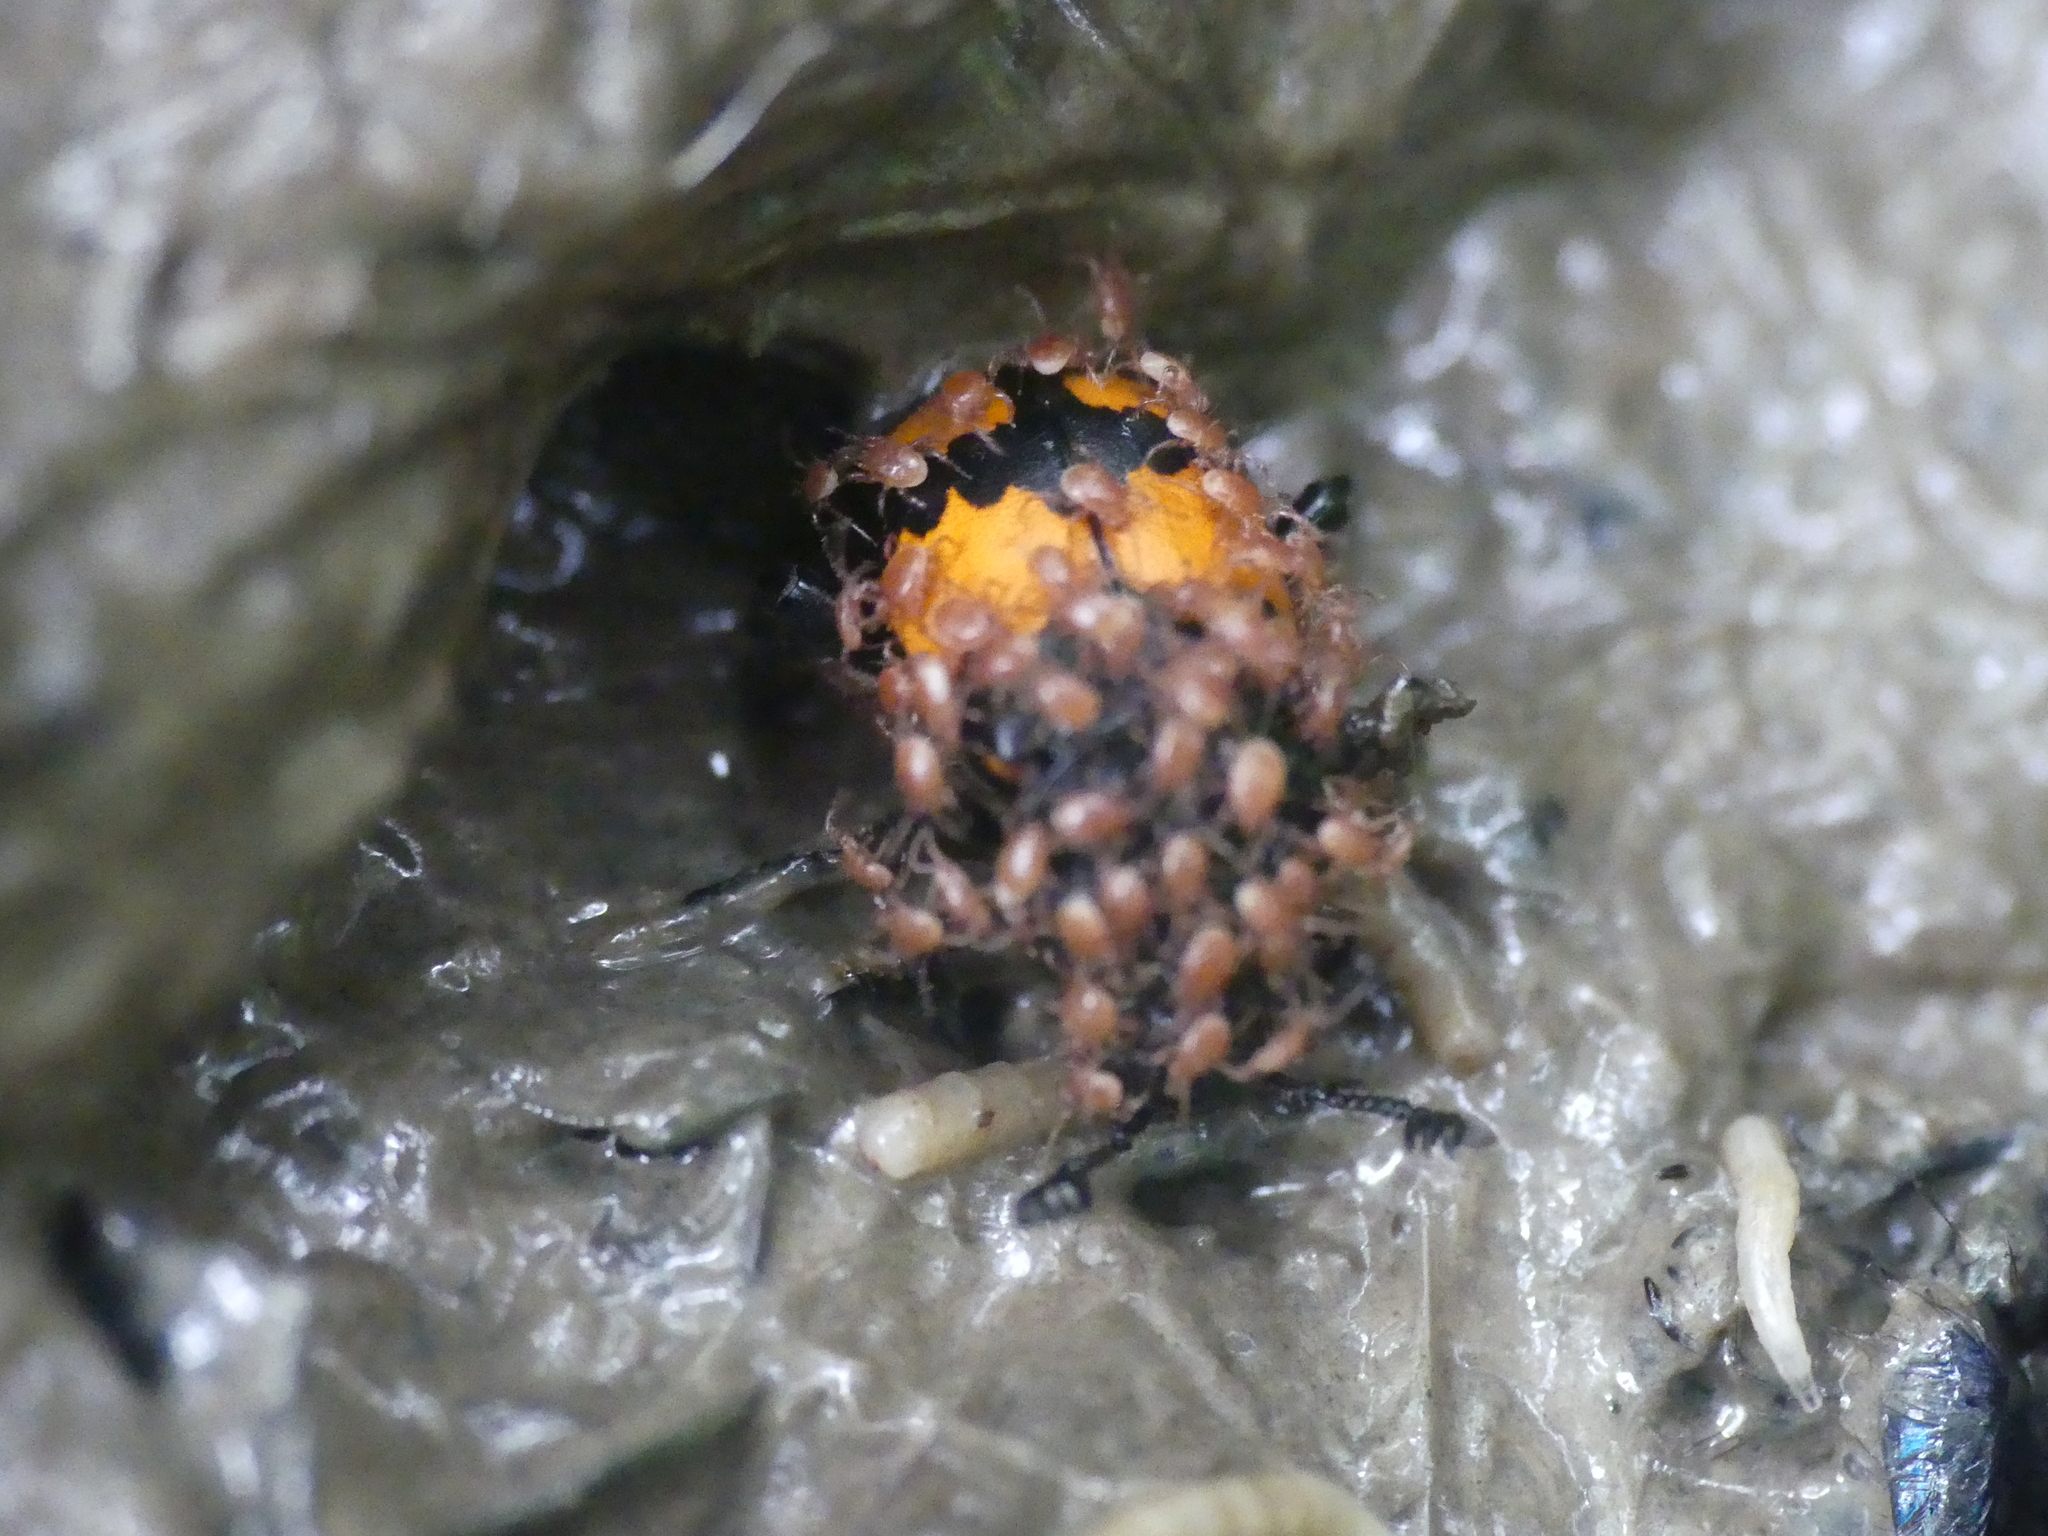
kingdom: Animalia
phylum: Arthropoda
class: Insecta
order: Coleoptera
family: Staphylinidae
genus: Nicrophorus
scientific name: Nicrophorus vespilloides
